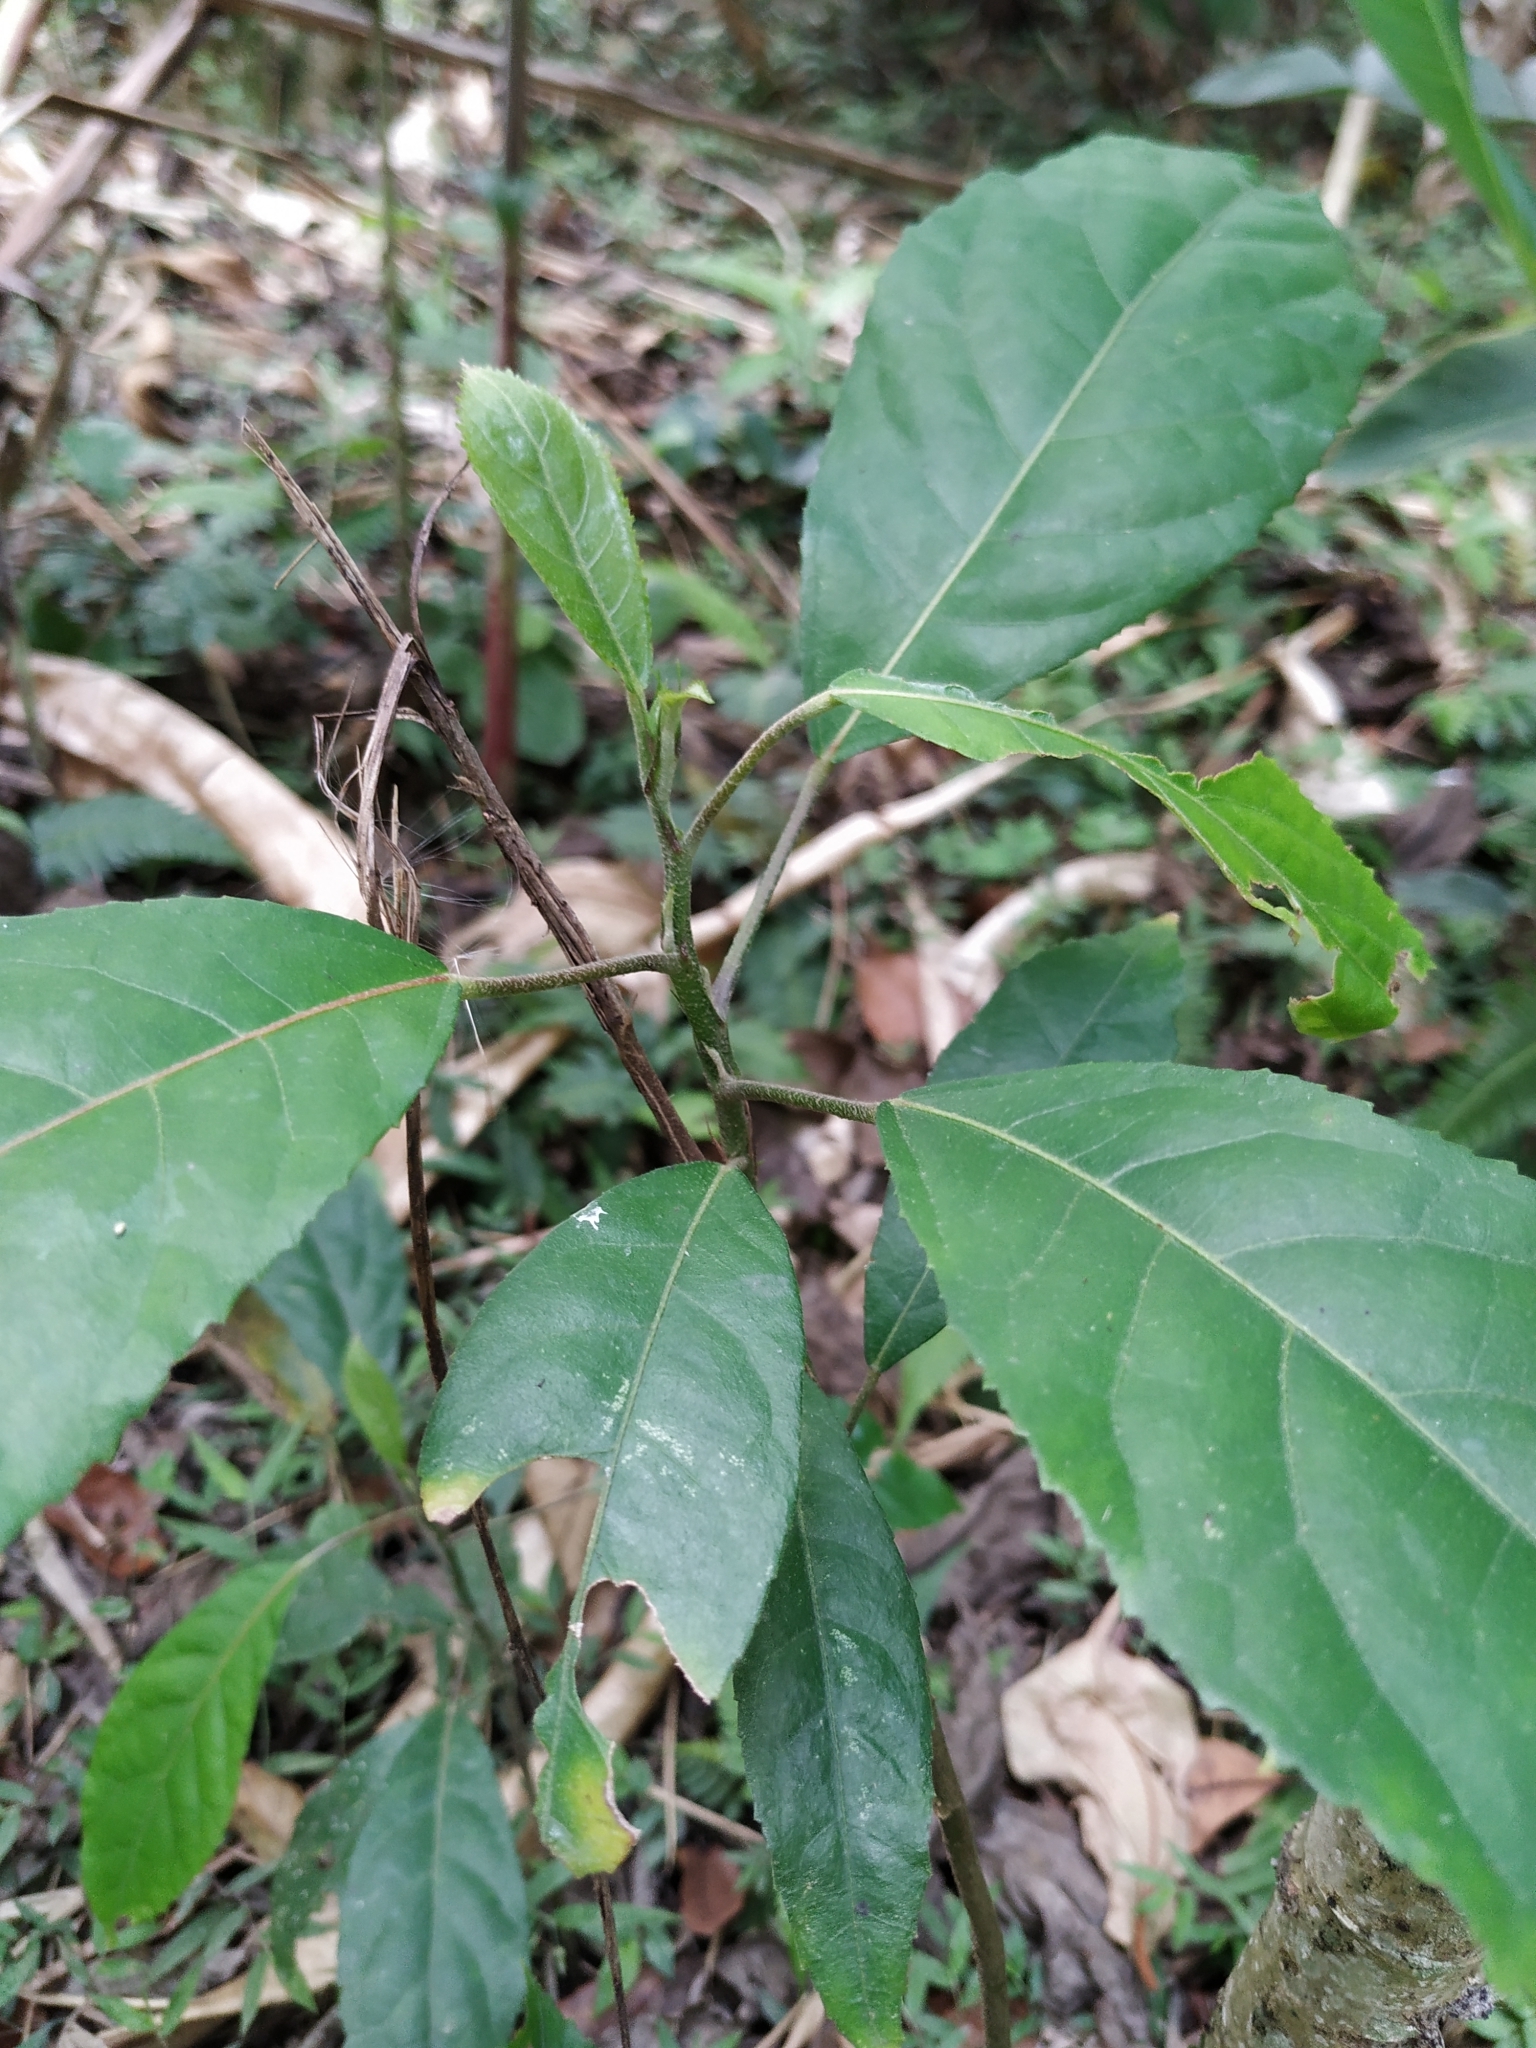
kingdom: Plantae
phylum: Tracheophyta
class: Magnoliopsida
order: Malvales
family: Malvaceae
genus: Pavonia
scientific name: Pavonia fruticosa
